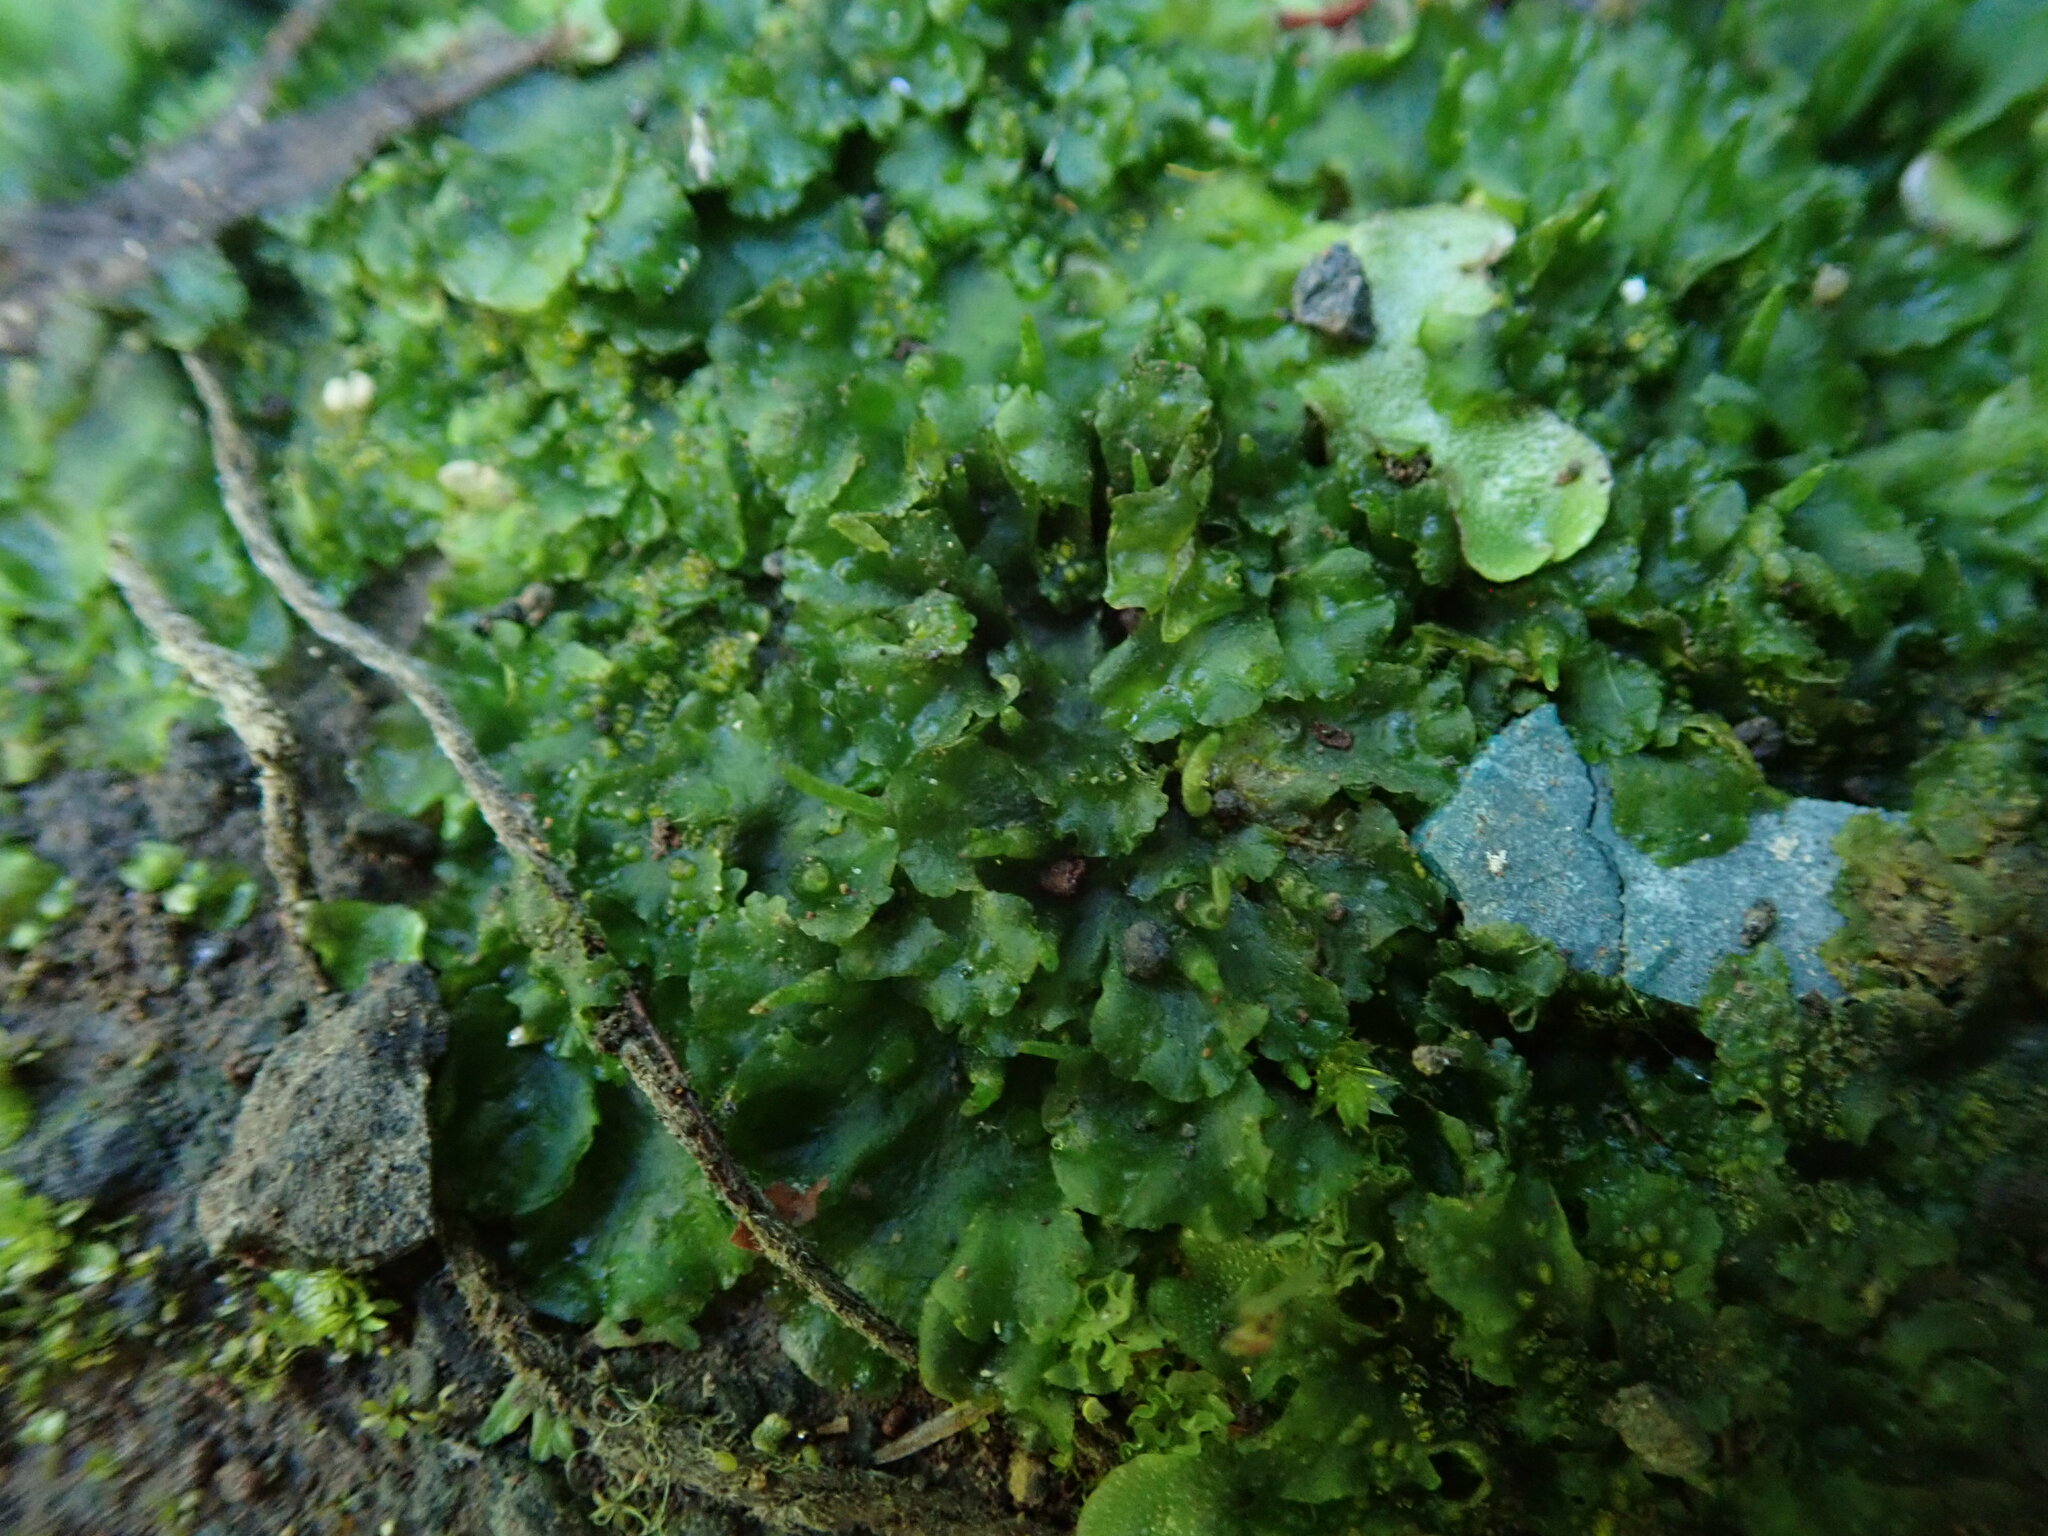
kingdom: Plantae
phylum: Anthocerotophyta
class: Anthocerotopsida
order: Notothyladales
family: Notothyladaceae
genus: Phaeoceros
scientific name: Phaeoceros carolinianus
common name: Carolina hornwort
